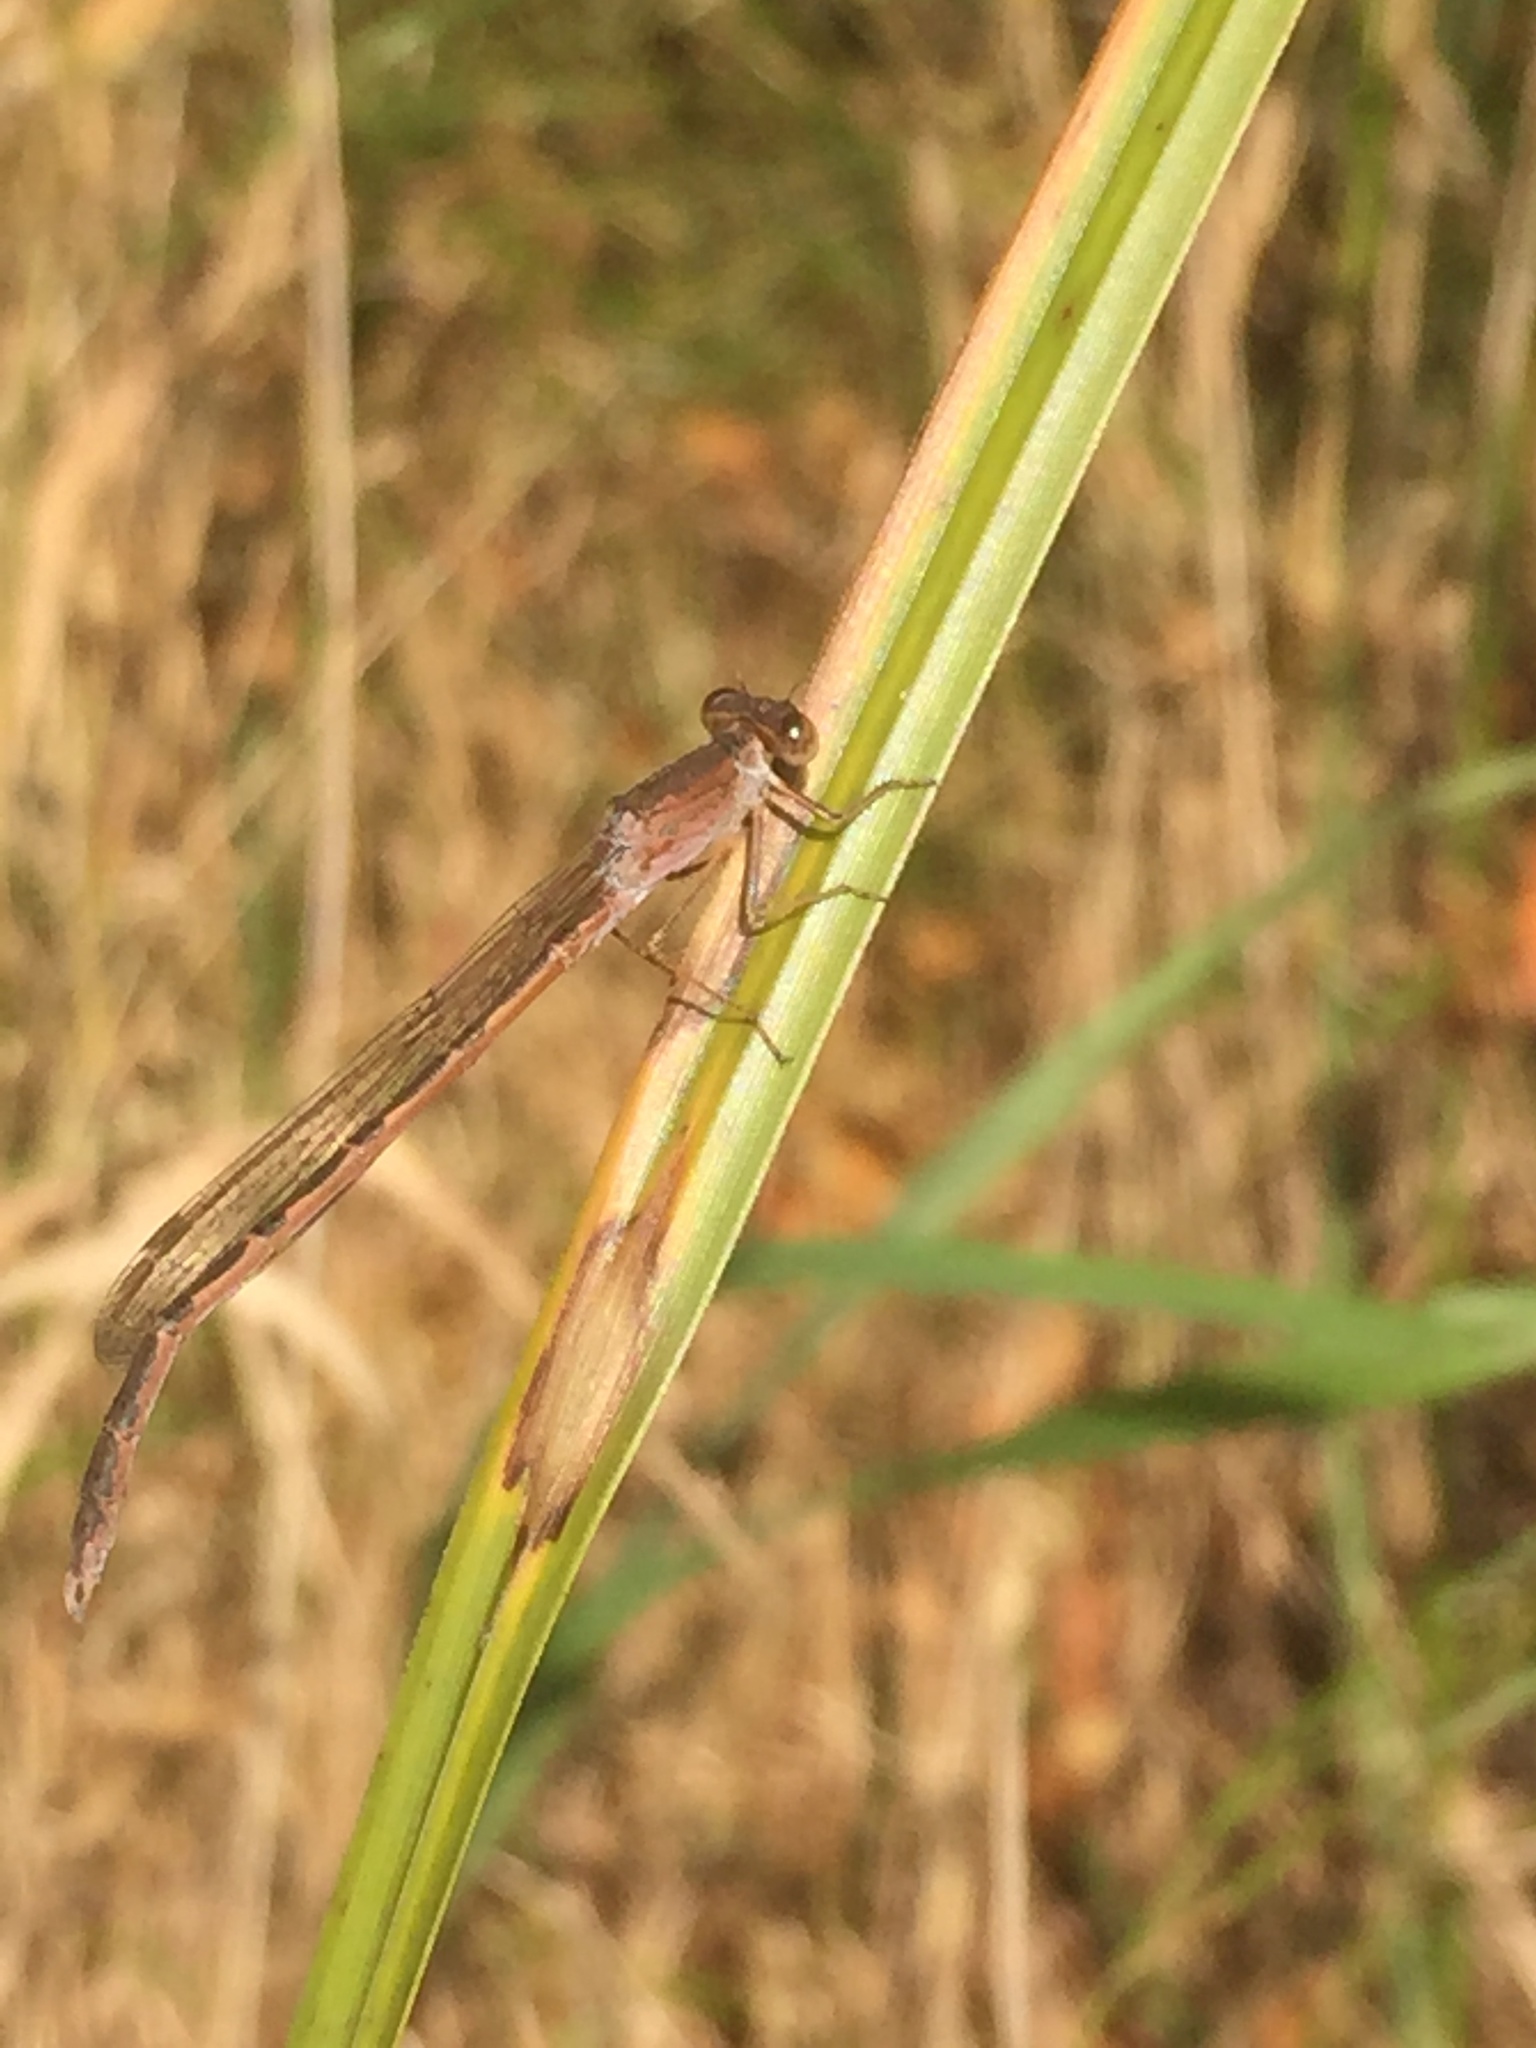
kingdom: Animalia
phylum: Arthropoda
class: Insecta
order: Odonata
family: Lestidae
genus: Sympecma
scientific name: Sympecma paedisca
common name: Siberian winter damsel
